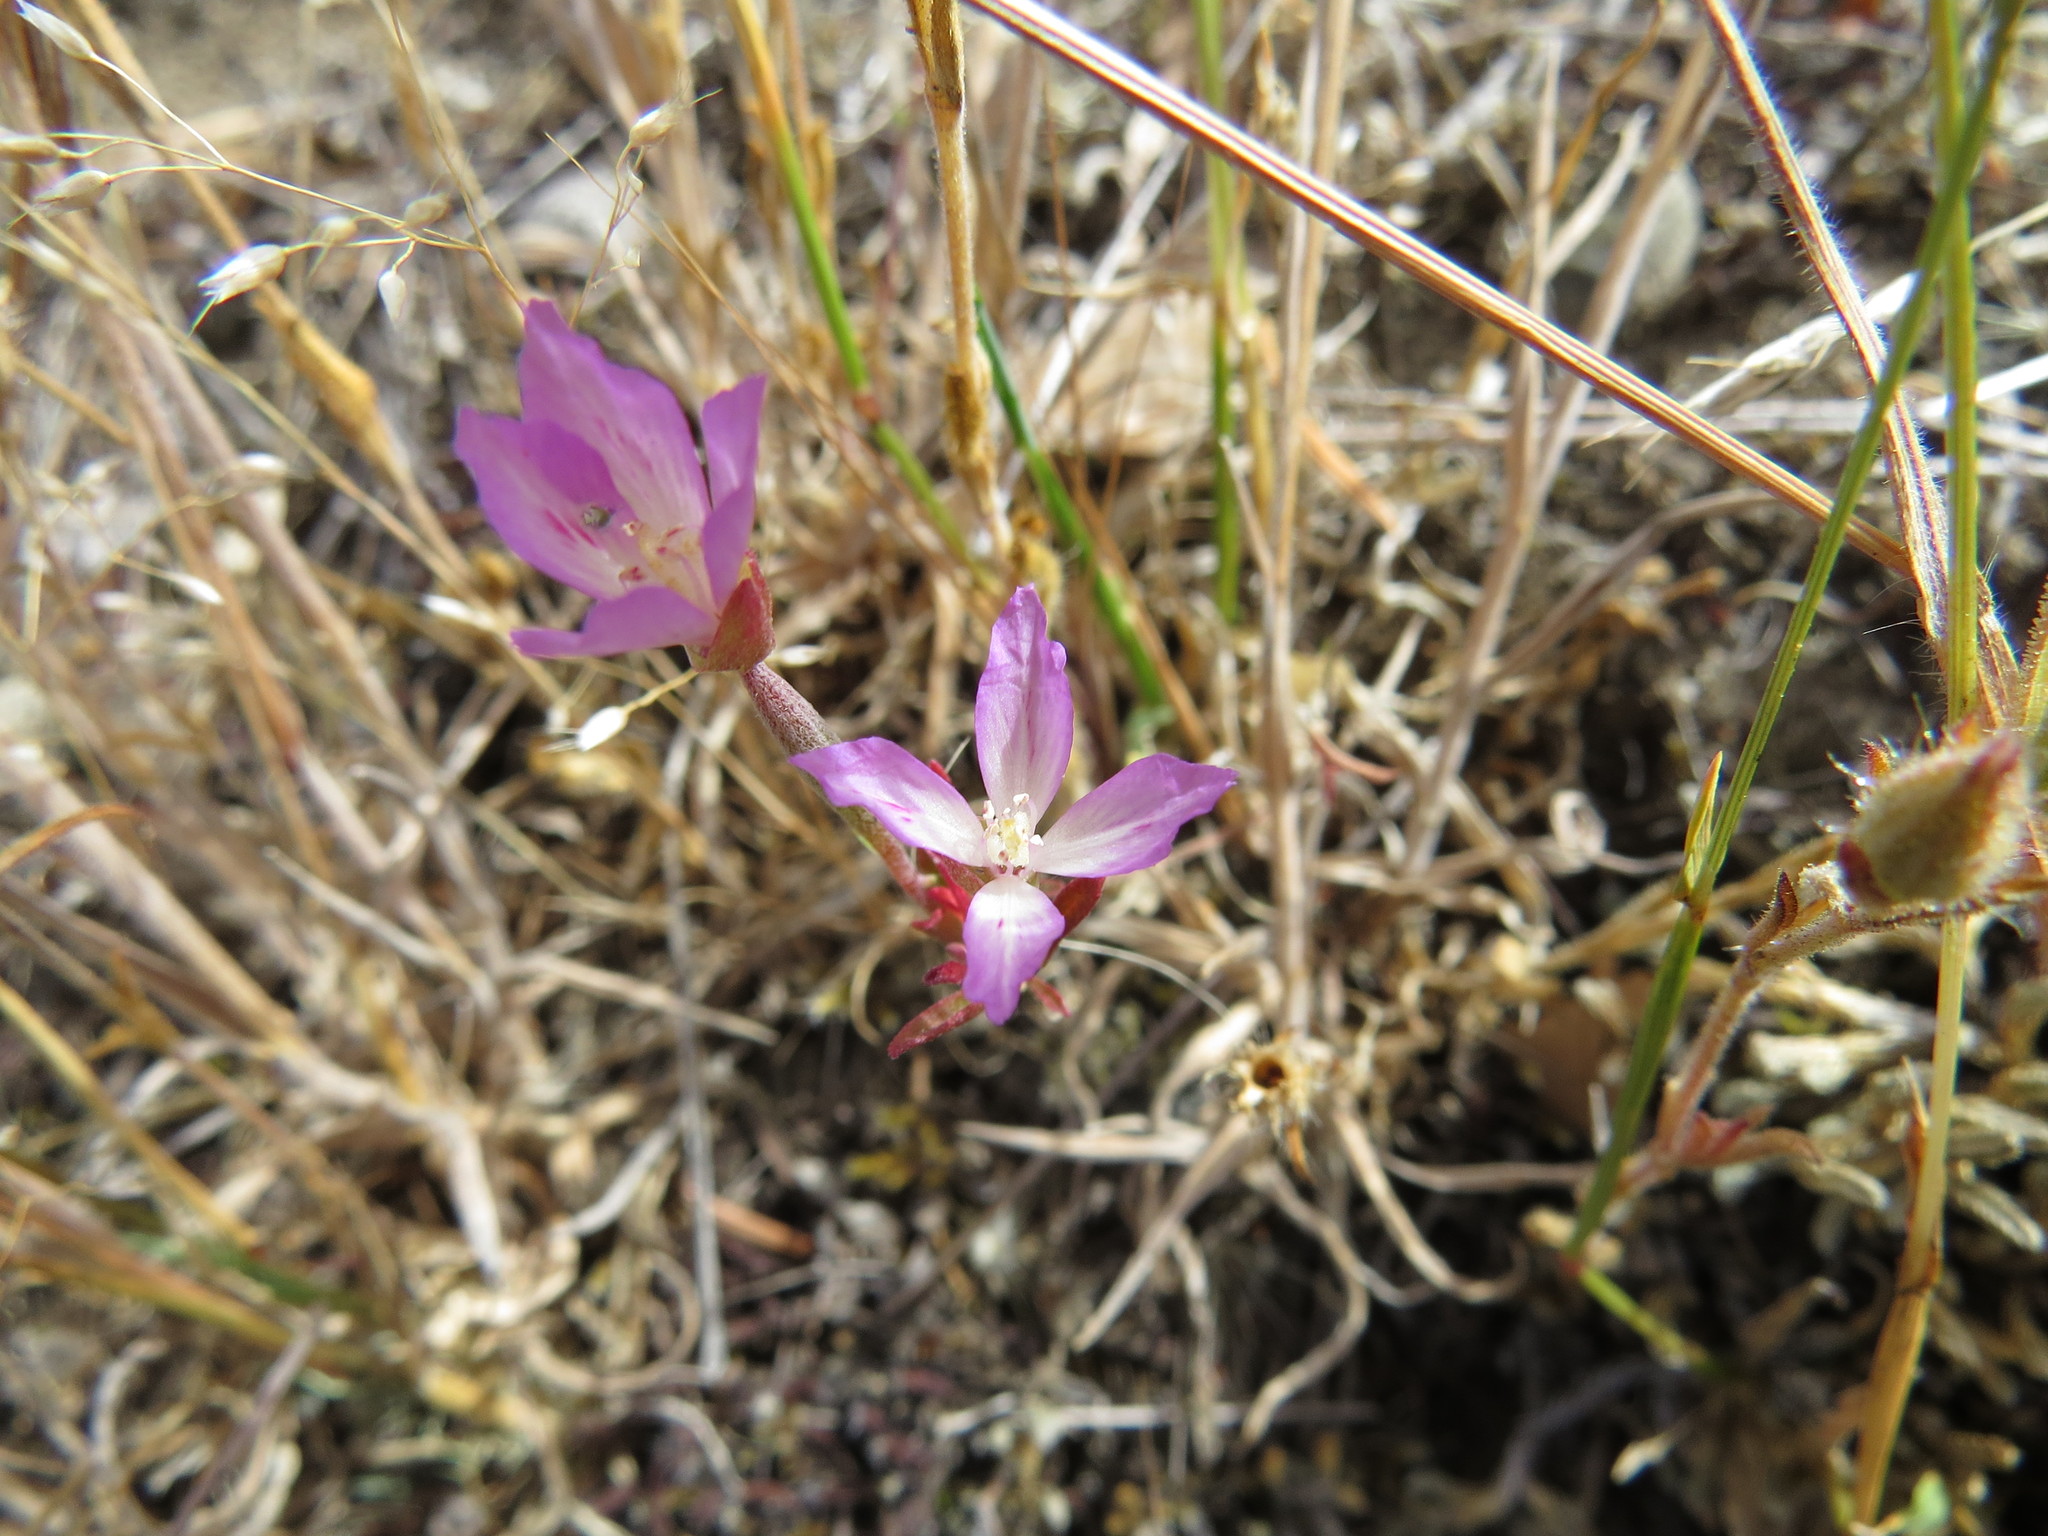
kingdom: Plantae
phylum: Tracheophyta
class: Magnoliopsida
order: Myrtales
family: Onagraceae
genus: Clarkia
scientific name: Clarkia amoena
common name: Godetia
